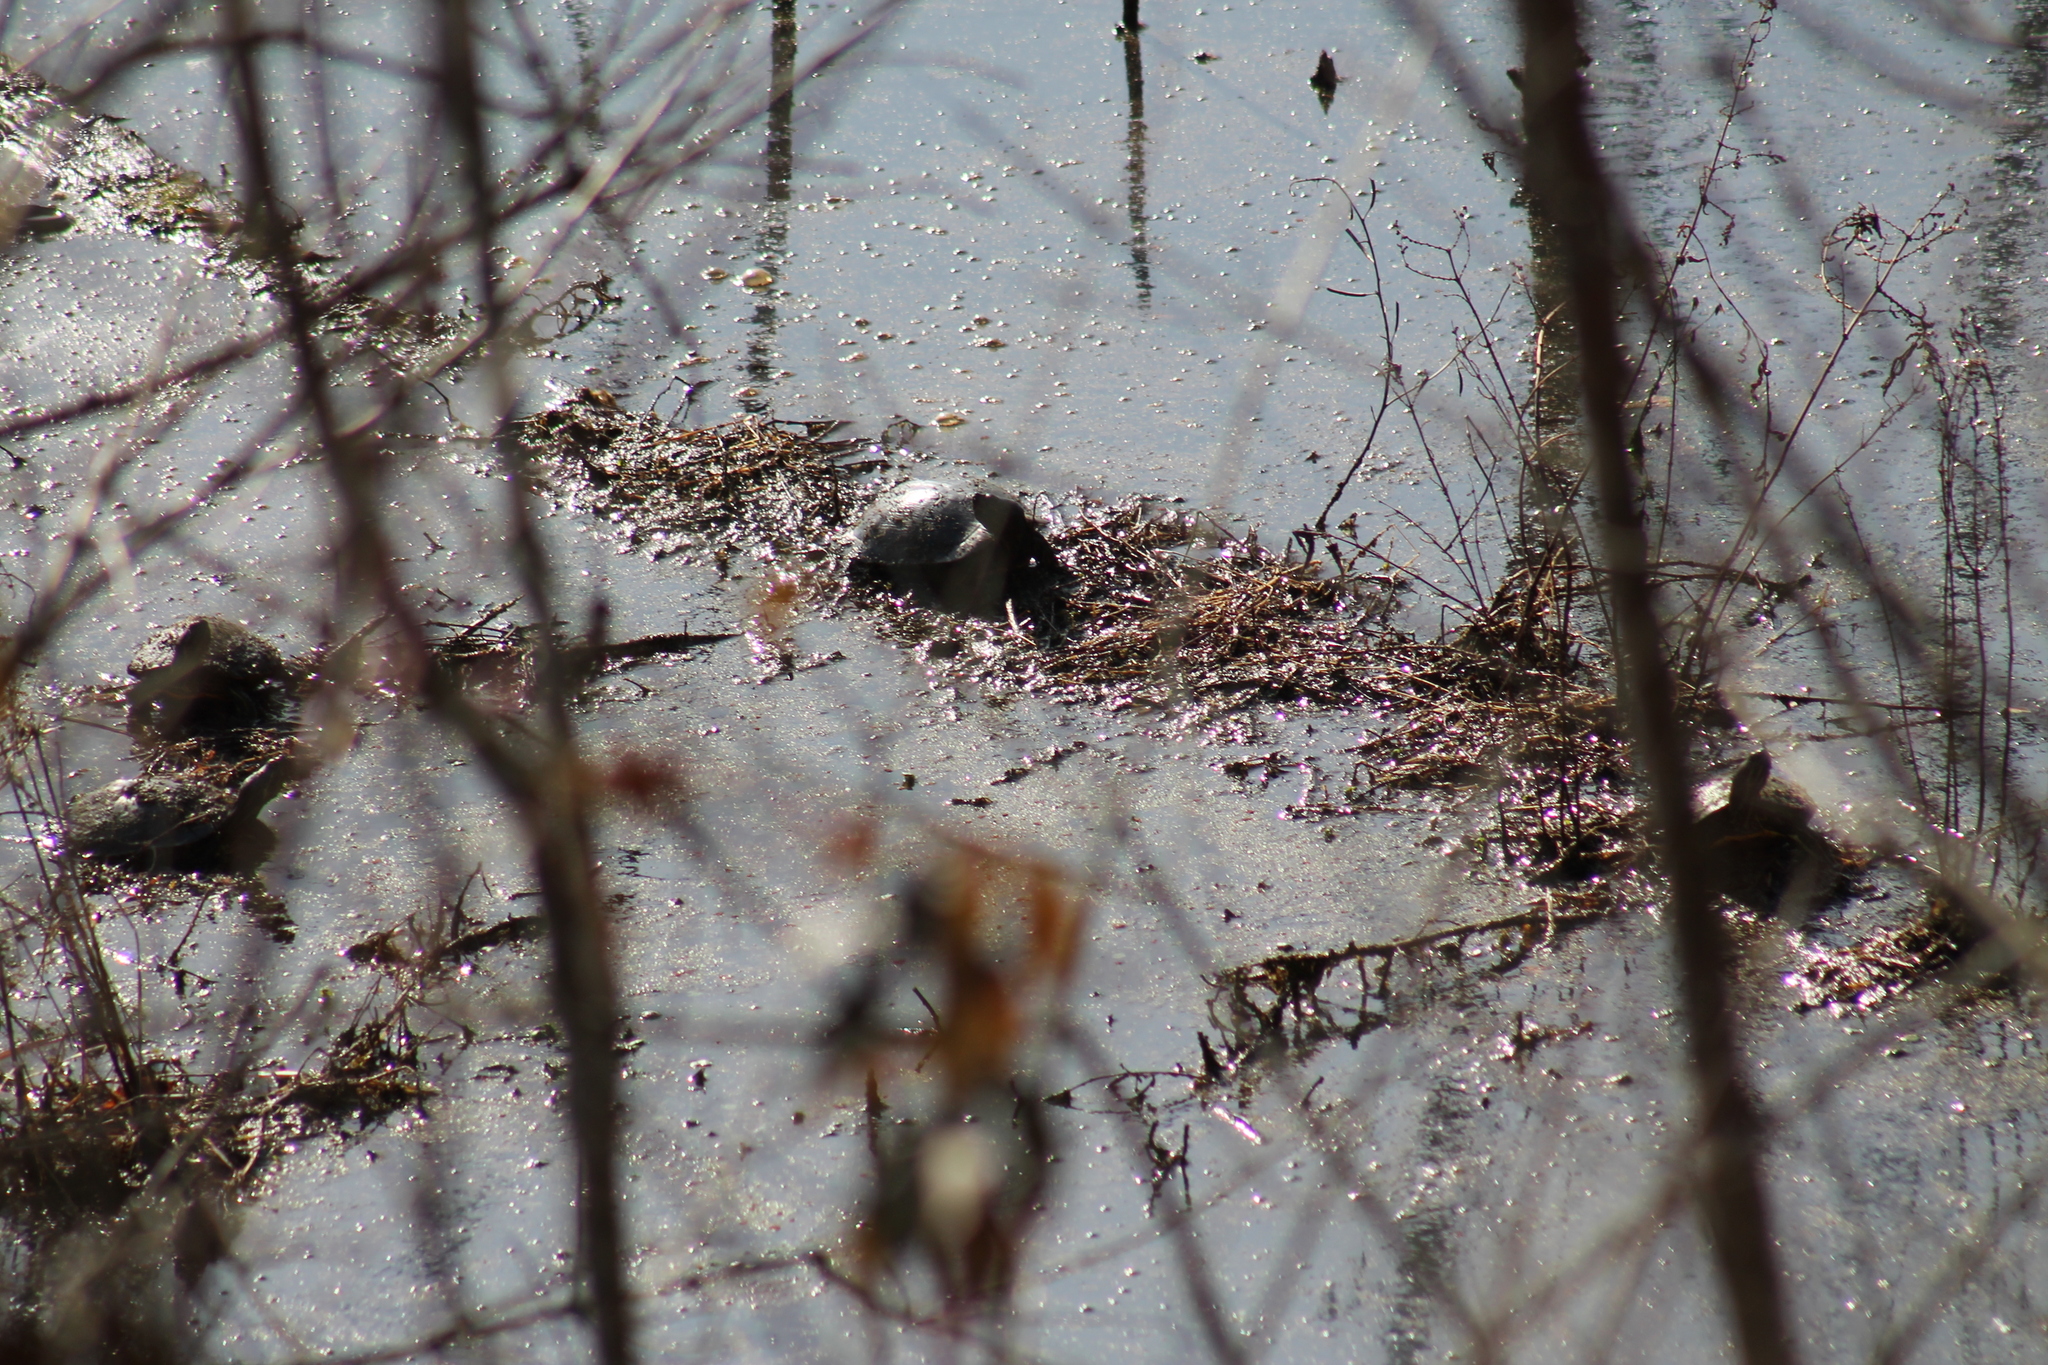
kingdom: Animalia
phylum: Chordata
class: Testudines
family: Emydidae
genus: Trachemys
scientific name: Trachemys scripta
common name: Slider
